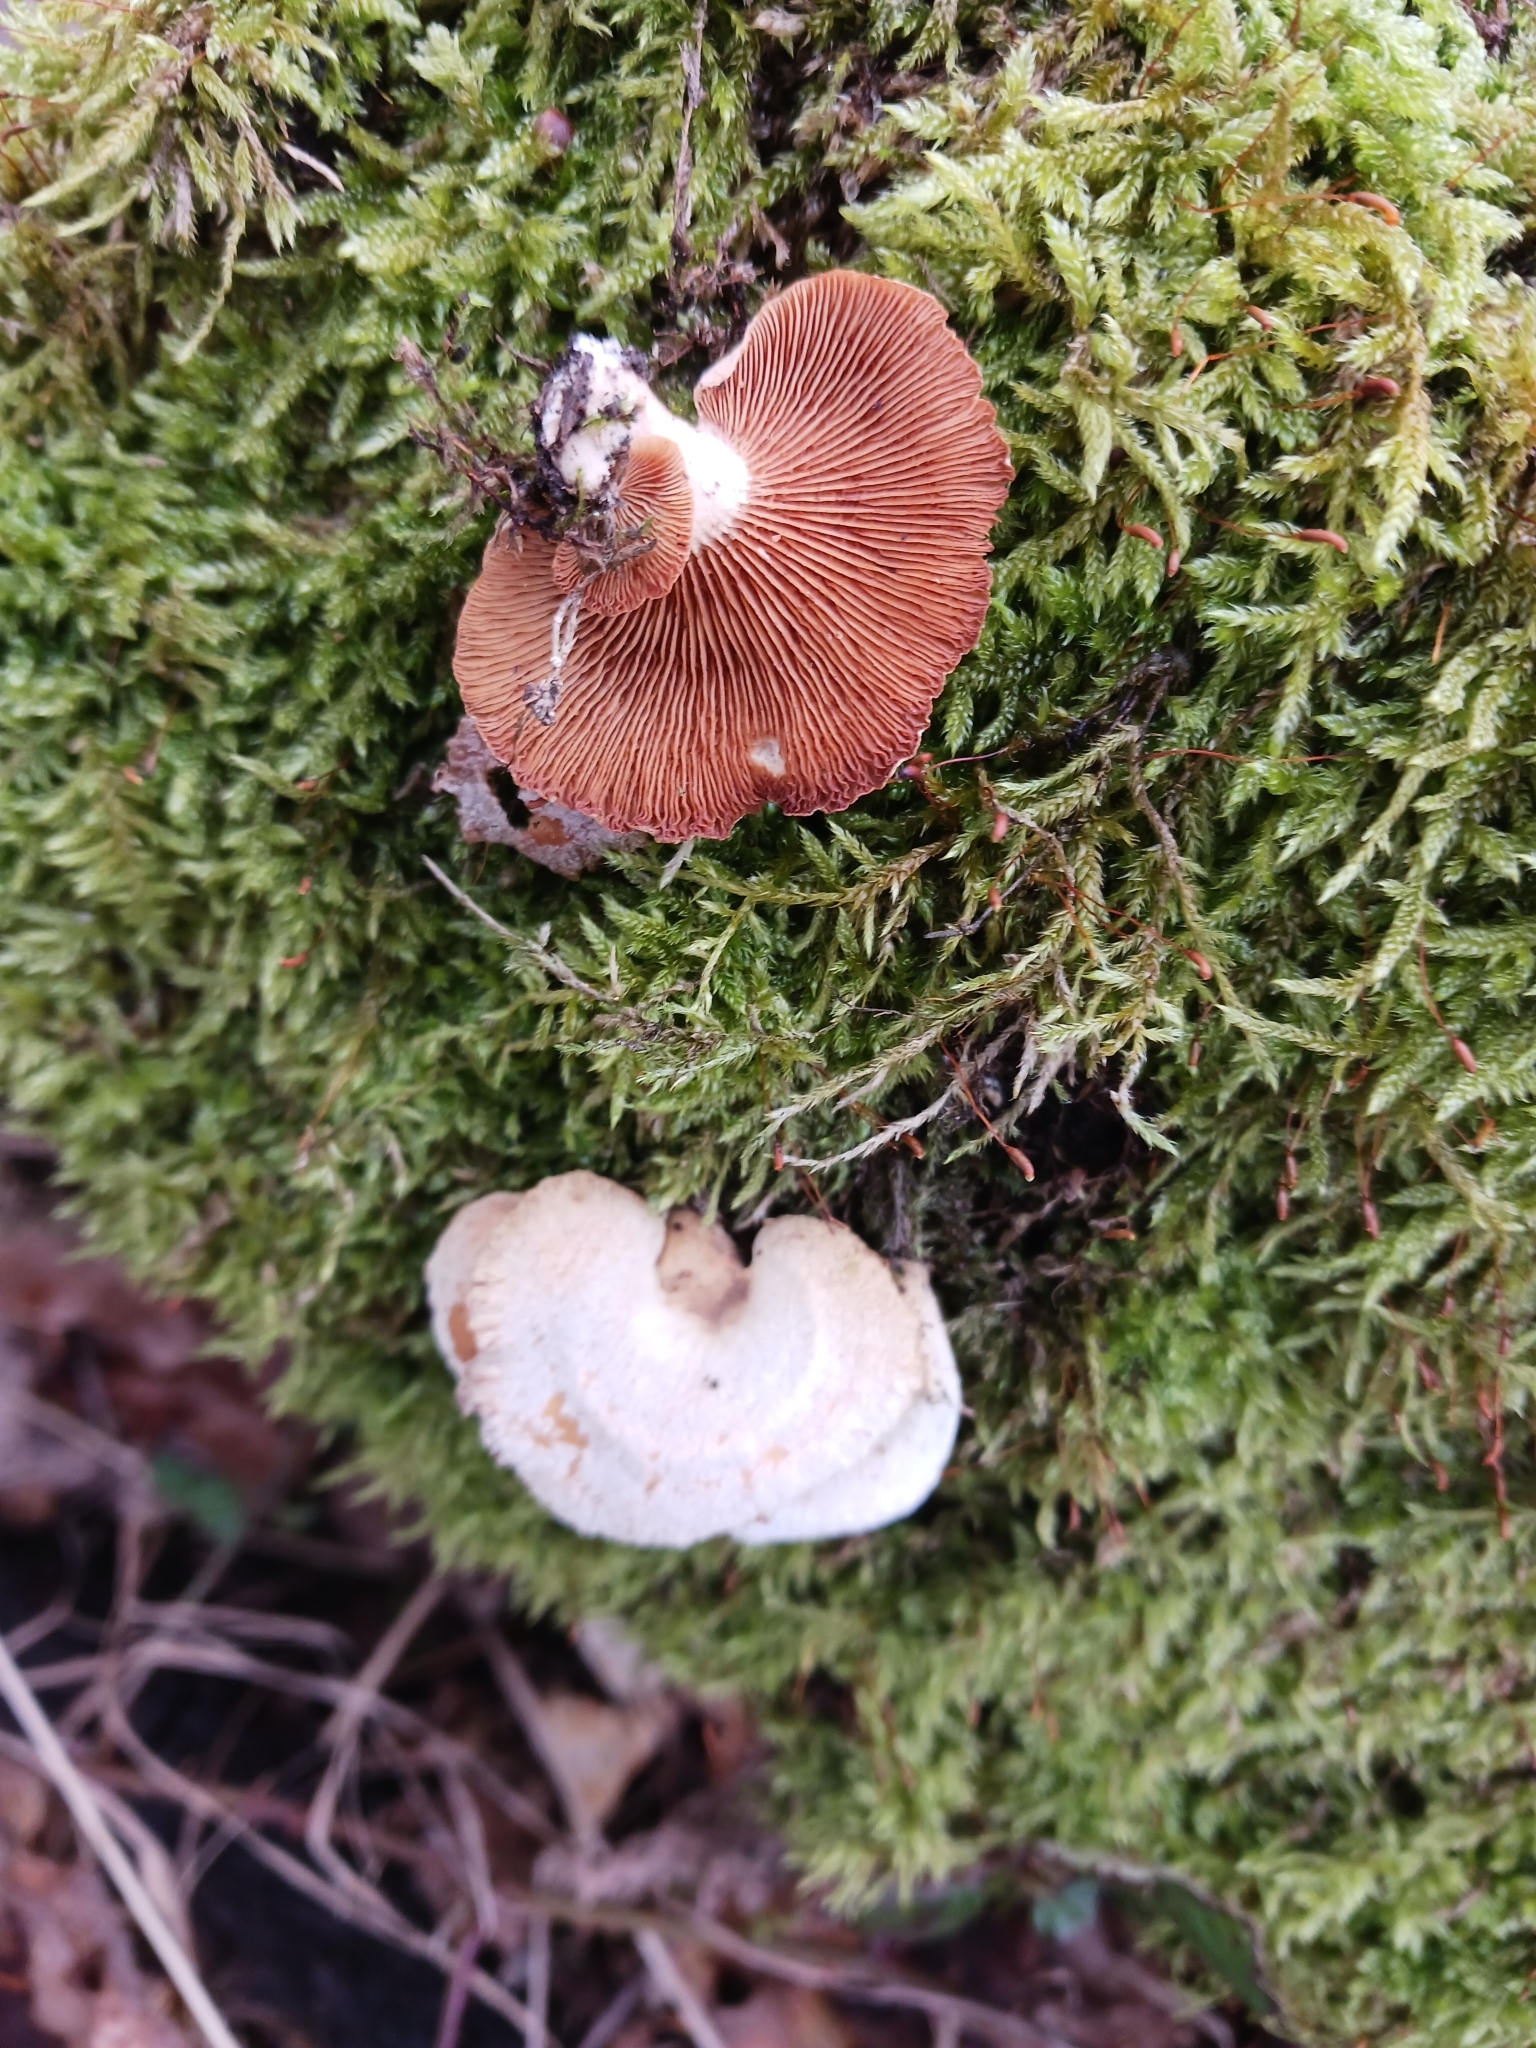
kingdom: Fungi
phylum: Basidiomycota
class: Agaricomycetes
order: Agaricales
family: Mycenaceae
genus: Panellus
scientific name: Panellus stipticus
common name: Bitter oysterling
